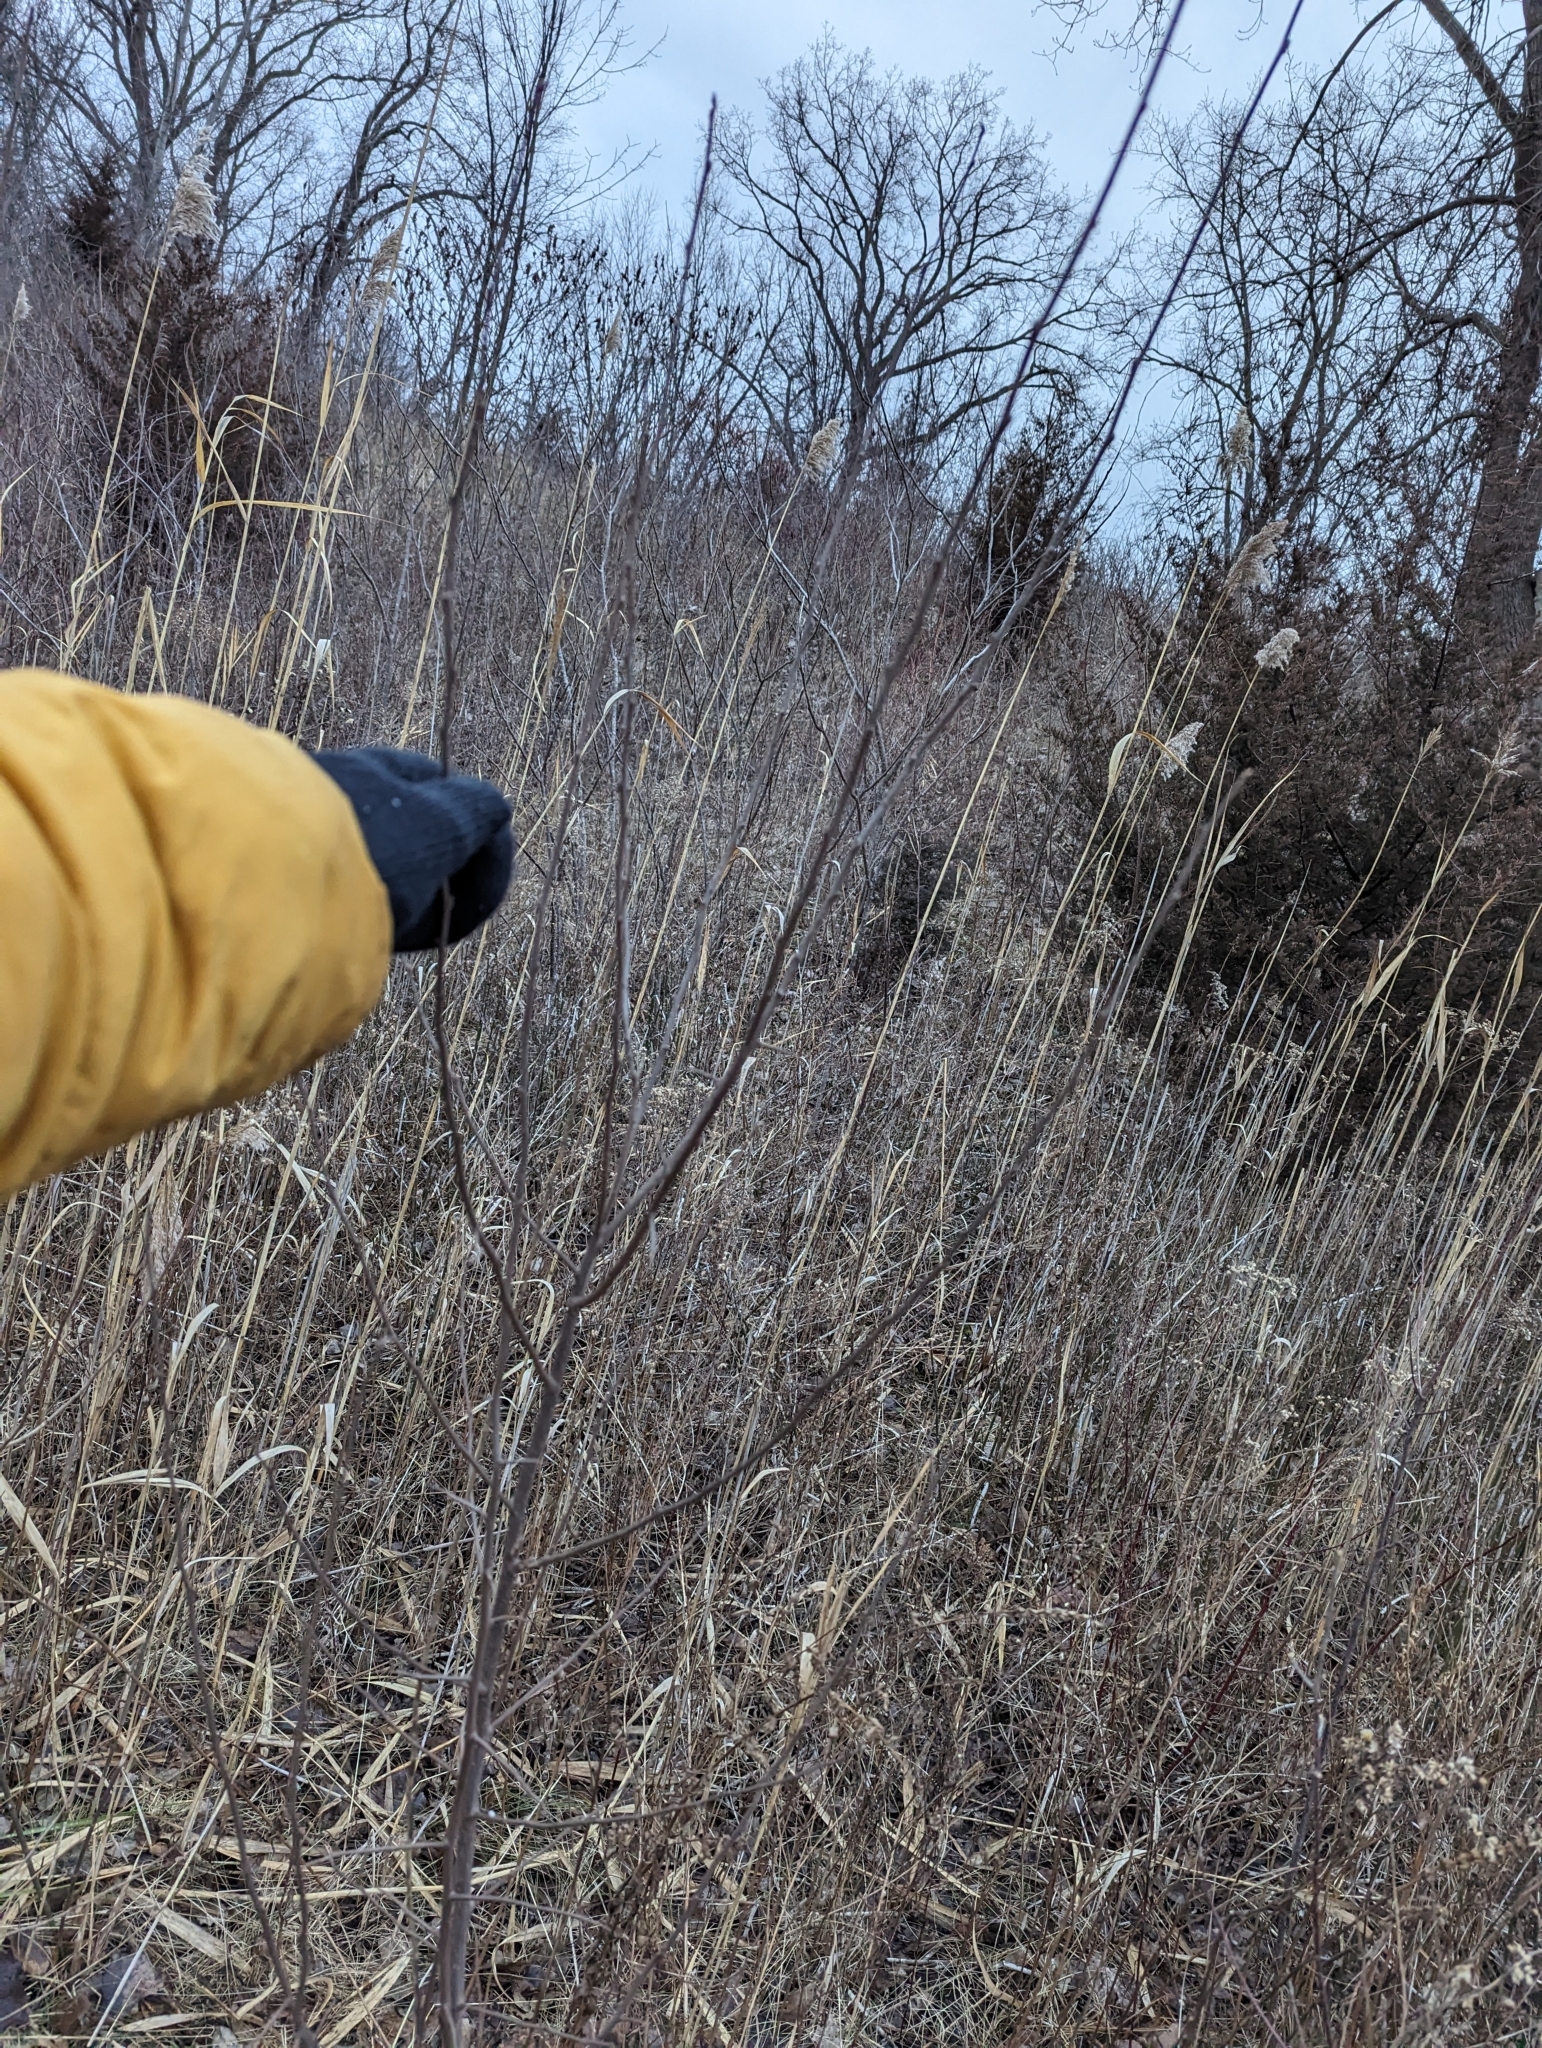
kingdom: Plantae
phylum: Tracheophyta
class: Magnoliopsida
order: Rosales
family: Elaeagnaceae
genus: Elaeagnus
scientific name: Elaeagnus umbellata
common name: Autumn olive
